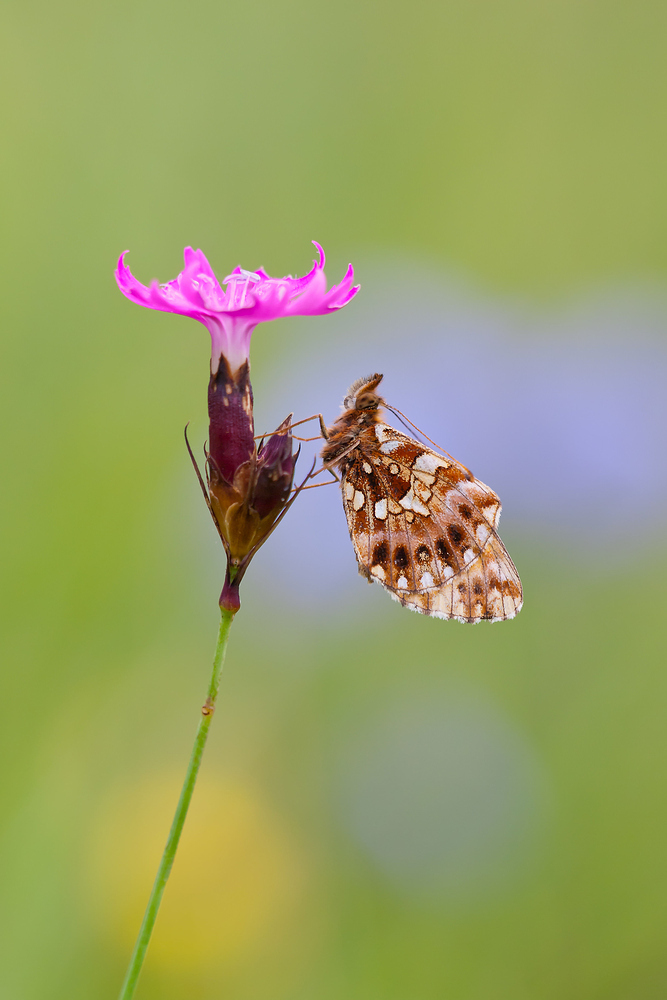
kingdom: Animalia
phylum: Arthropoda
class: Insecta
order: Lepidoptera
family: Nymphalidae
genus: Boloria
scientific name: Boloria dia
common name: Weaver's fritillary
